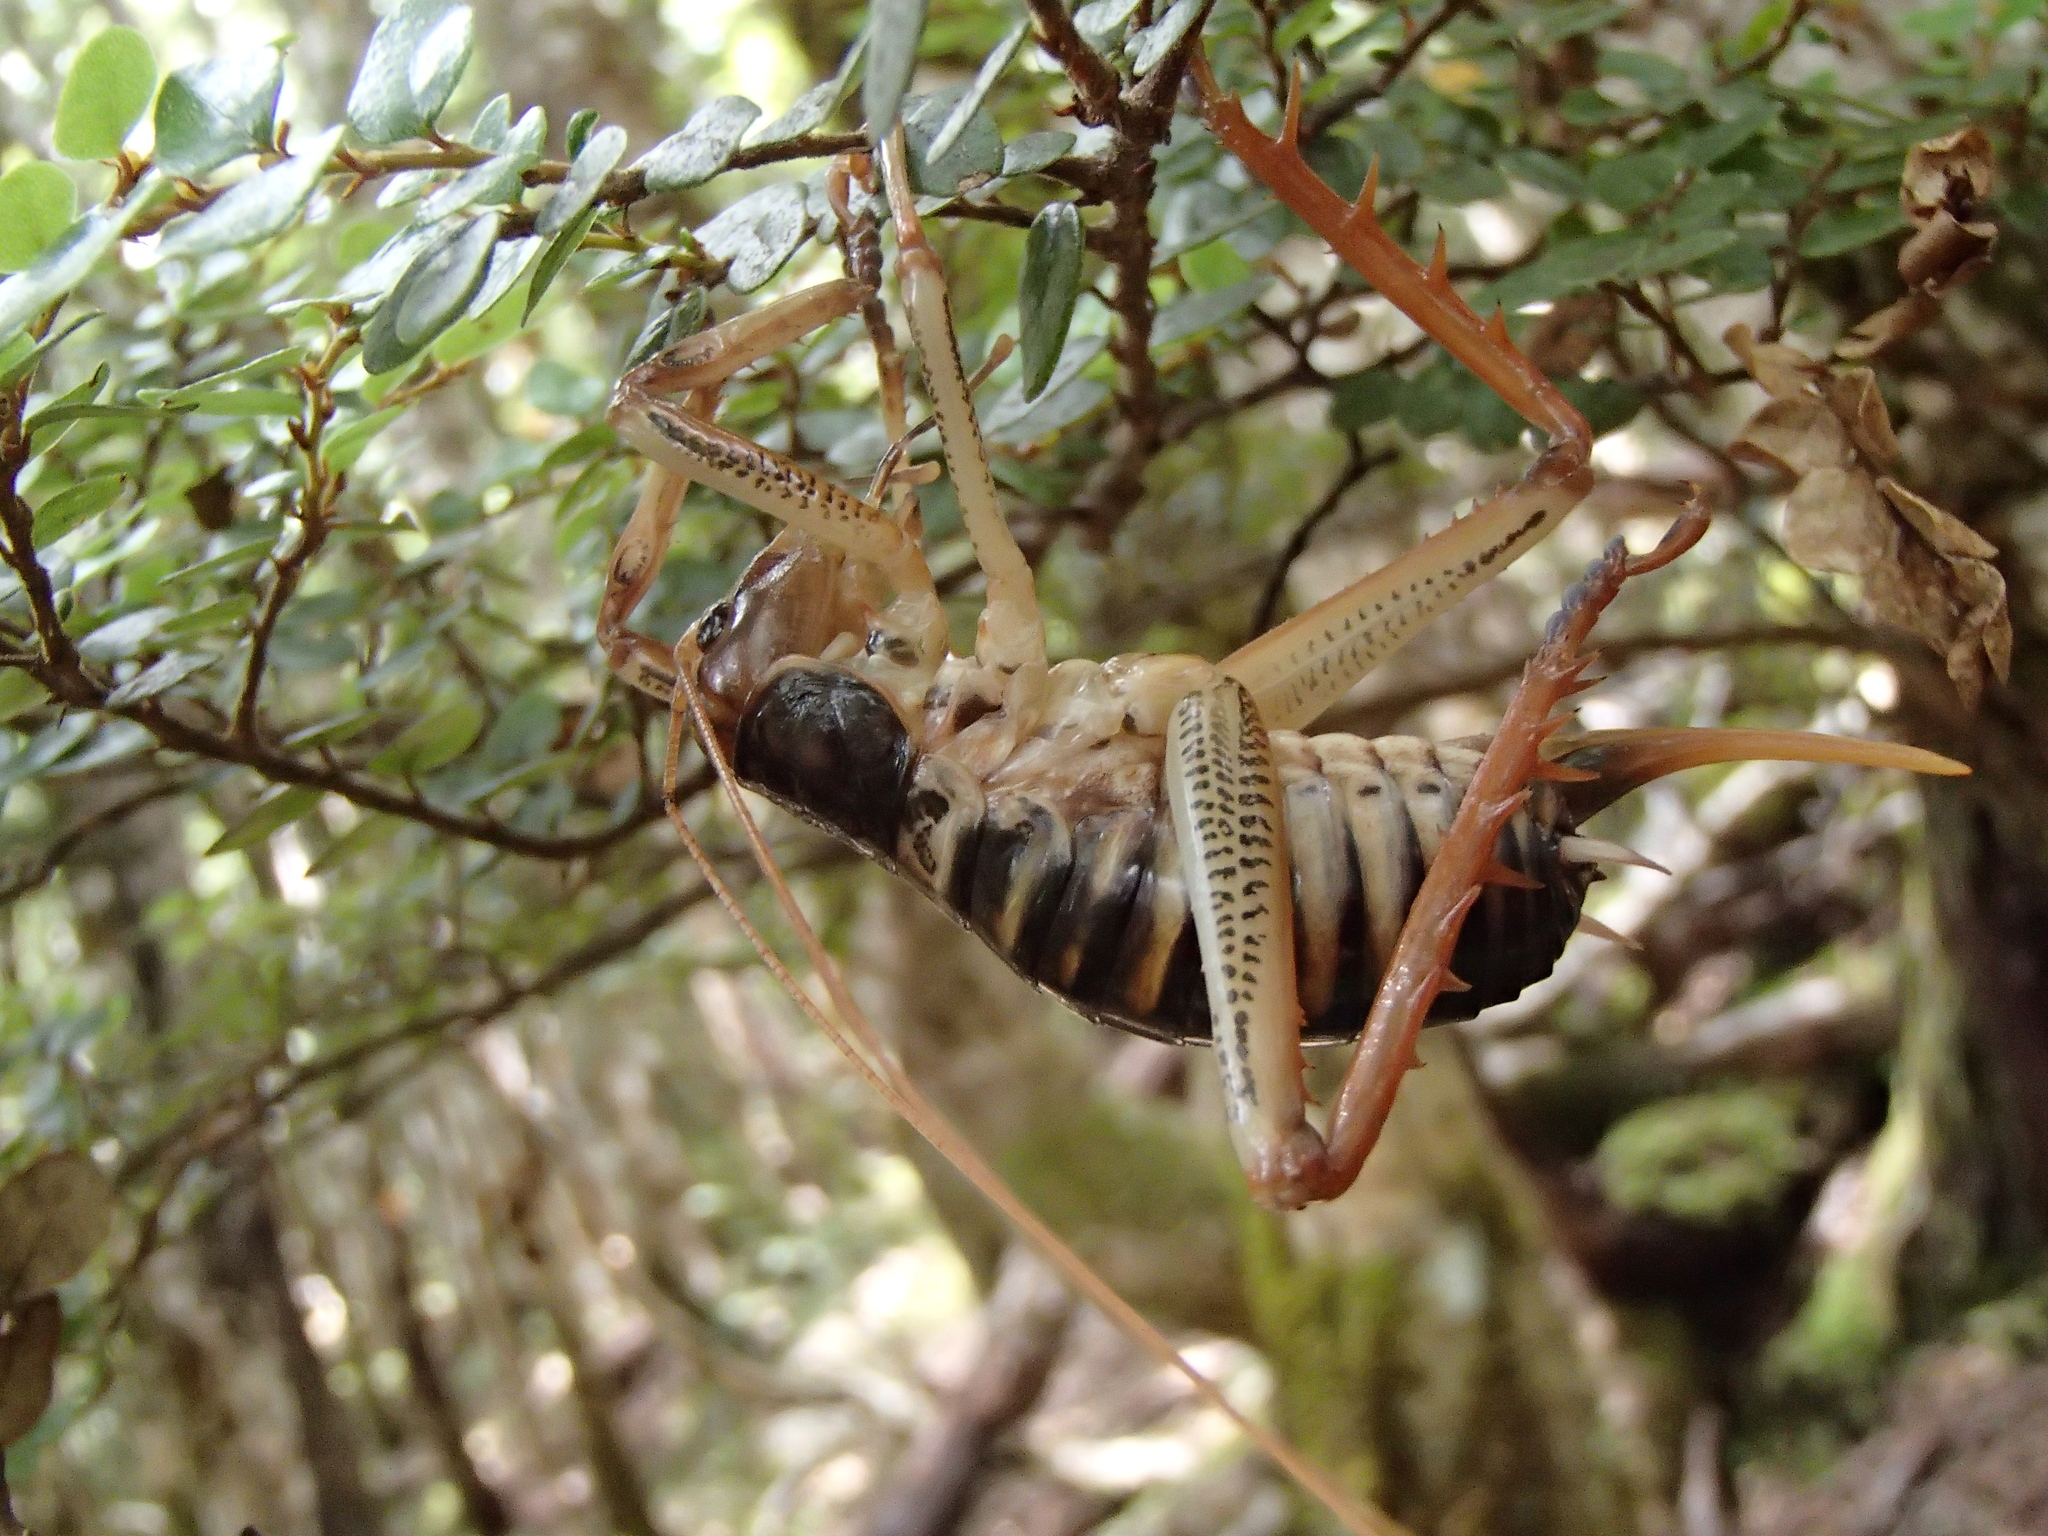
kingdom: Animalia
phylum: Arthropoda
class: Insecta
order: Orthoptera
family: Anostostomatidae
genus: Hemideina
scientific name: Hemideina crassidens
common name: Wellington tree weta
